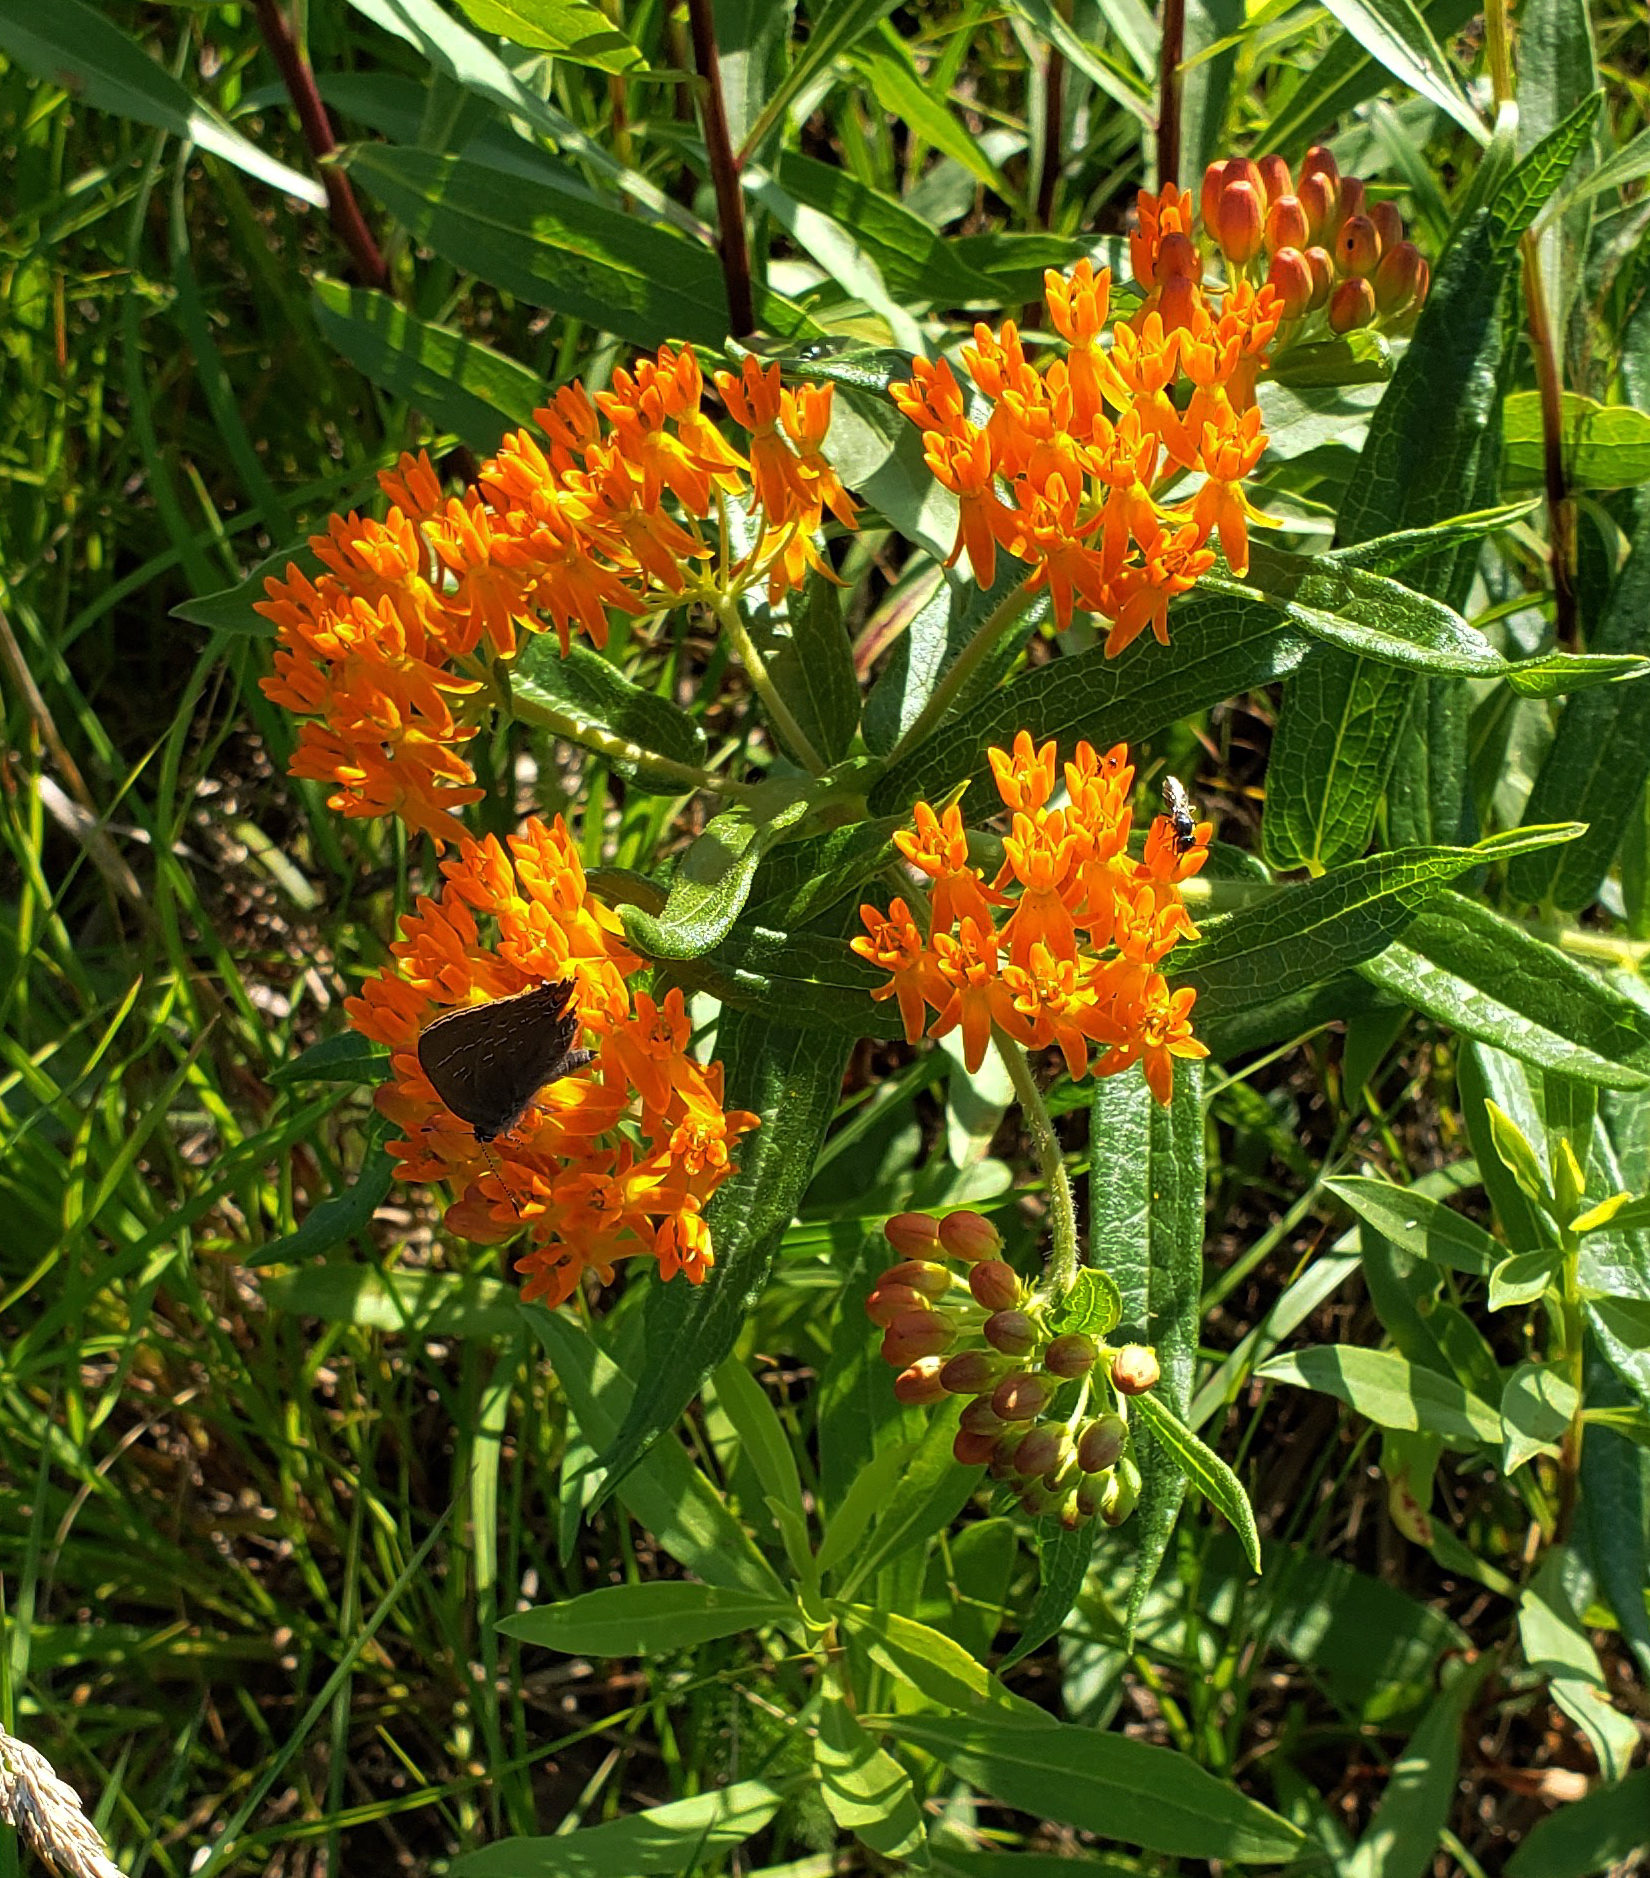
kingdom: Plantae
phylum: Tracheophyta
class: Magnoliopsida
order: Gentianales
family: Apocynaceae
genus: Asclepias
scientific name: Asclepias tuberosa
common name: Butterfly milkweed
